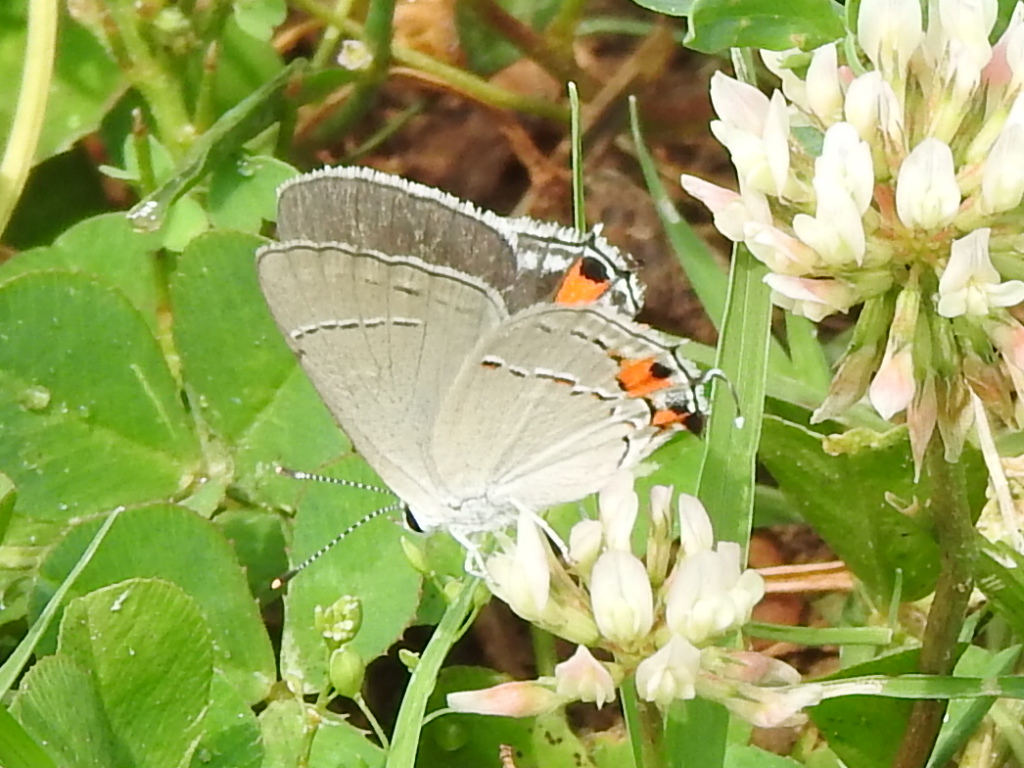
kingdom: Animalia
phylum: Arthropoda
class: Insecta
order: Lepidoptera
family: Lycaenidae
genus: Strymon
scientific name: Strymon melinus
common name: Gray hairstreak
